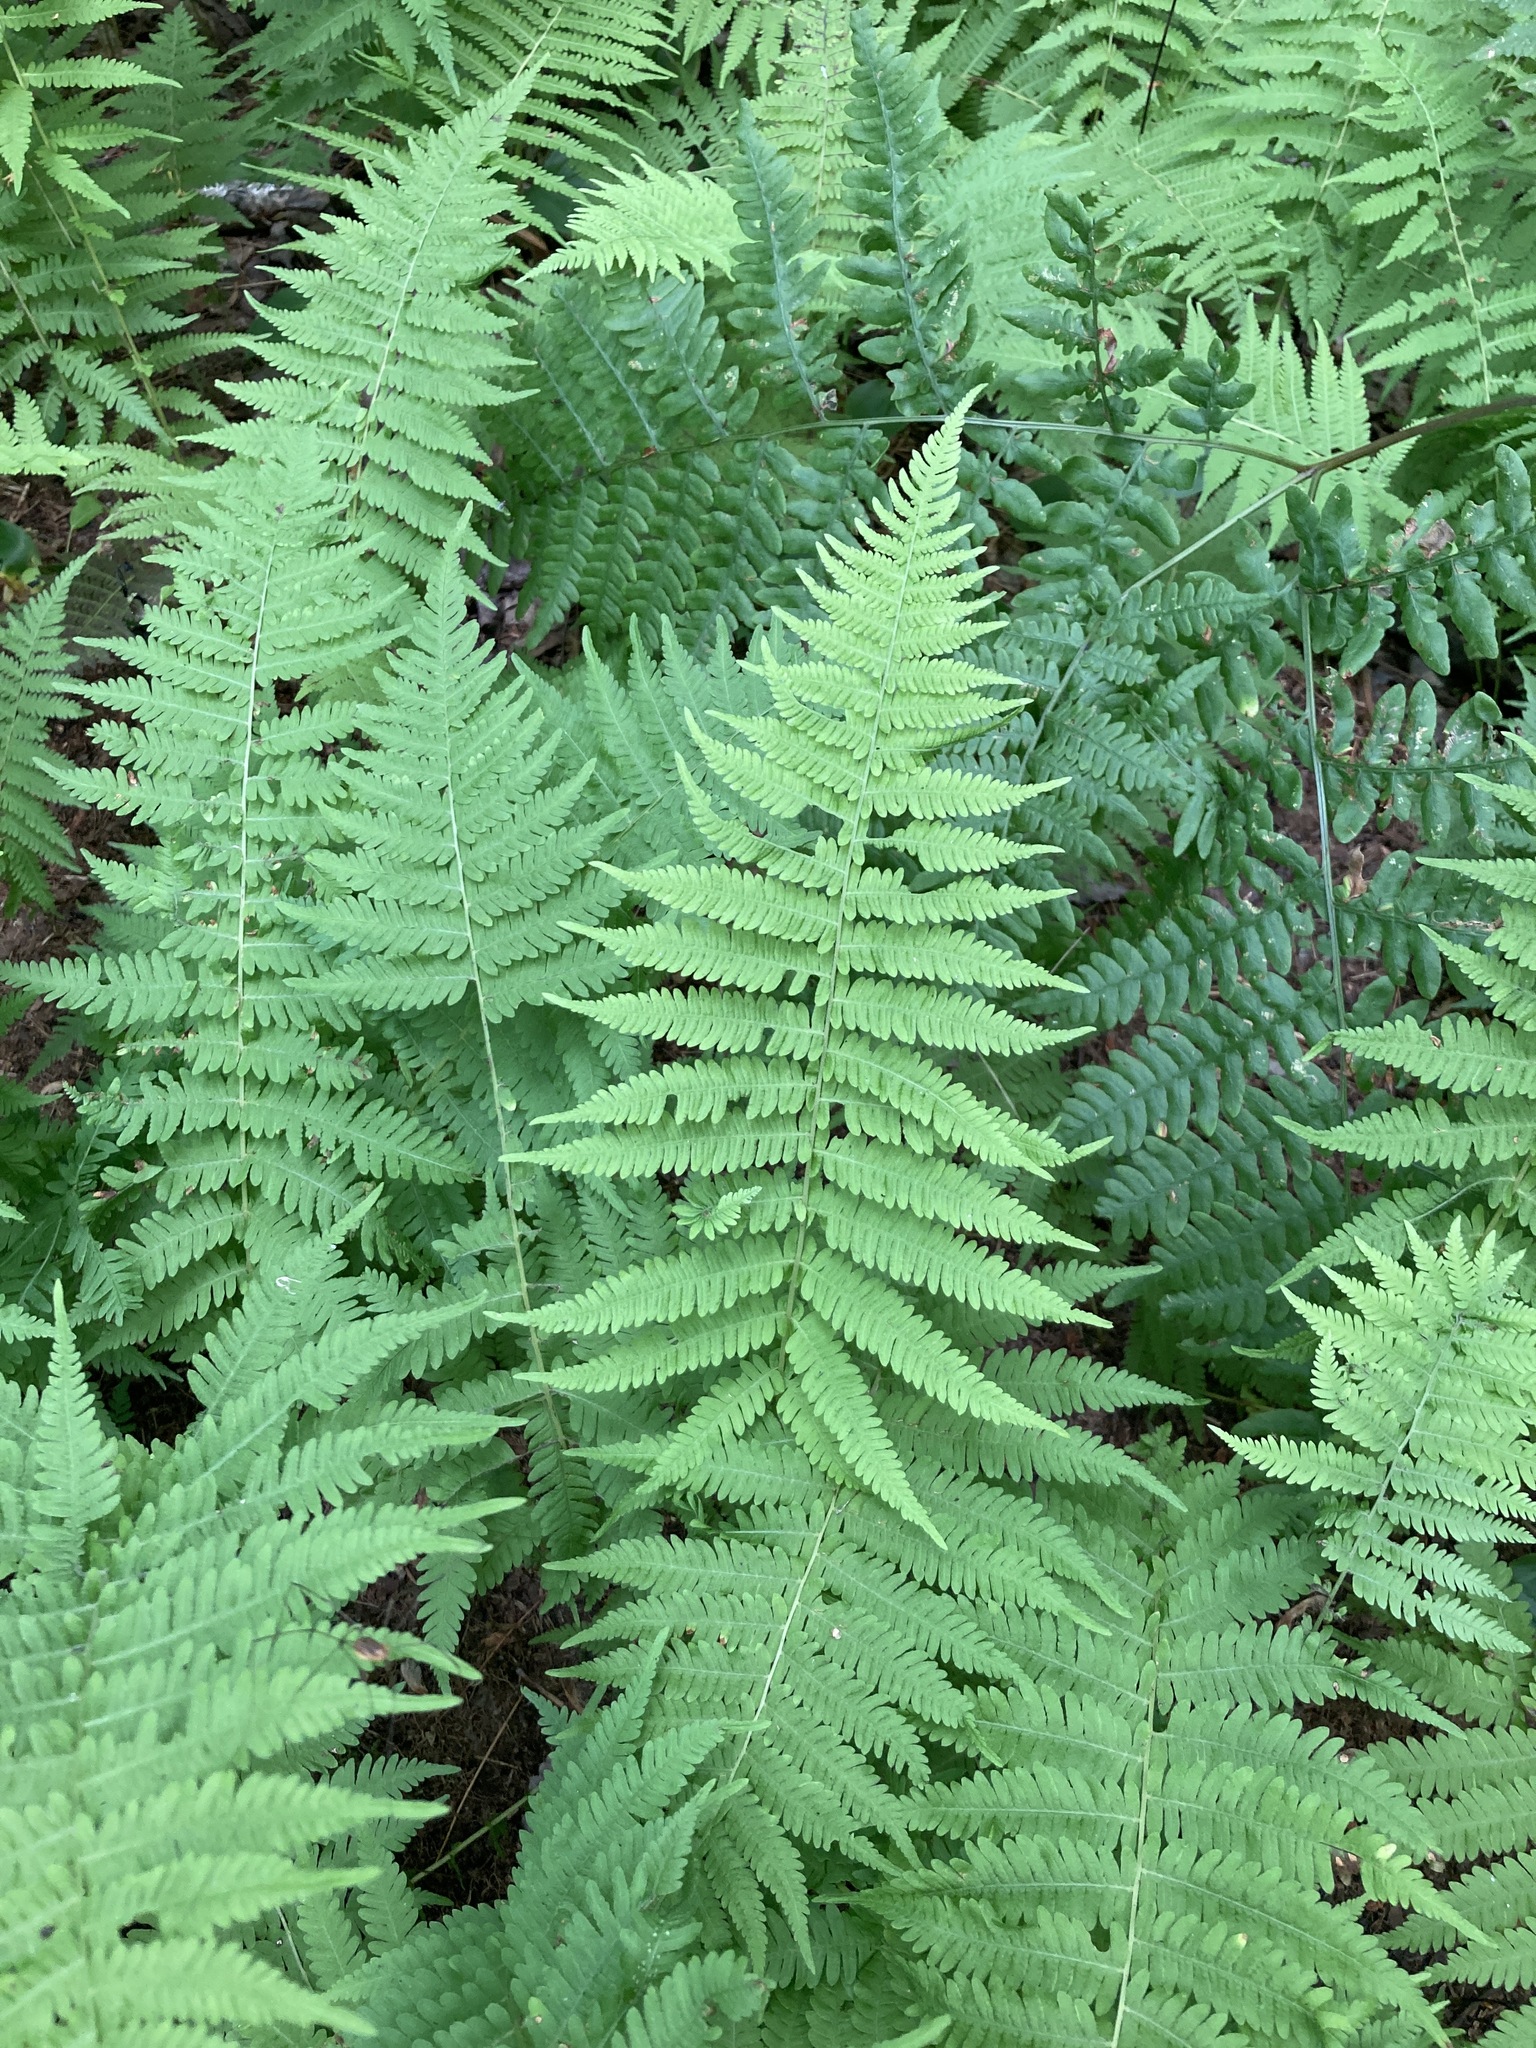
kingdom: Plantae
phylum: Tracheophyta
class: Polypodiopsida
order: Polypodiales
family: Thelypteridaceae
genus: Amauropelta
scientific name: Amauropelta noveboracensis
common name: New york fern
